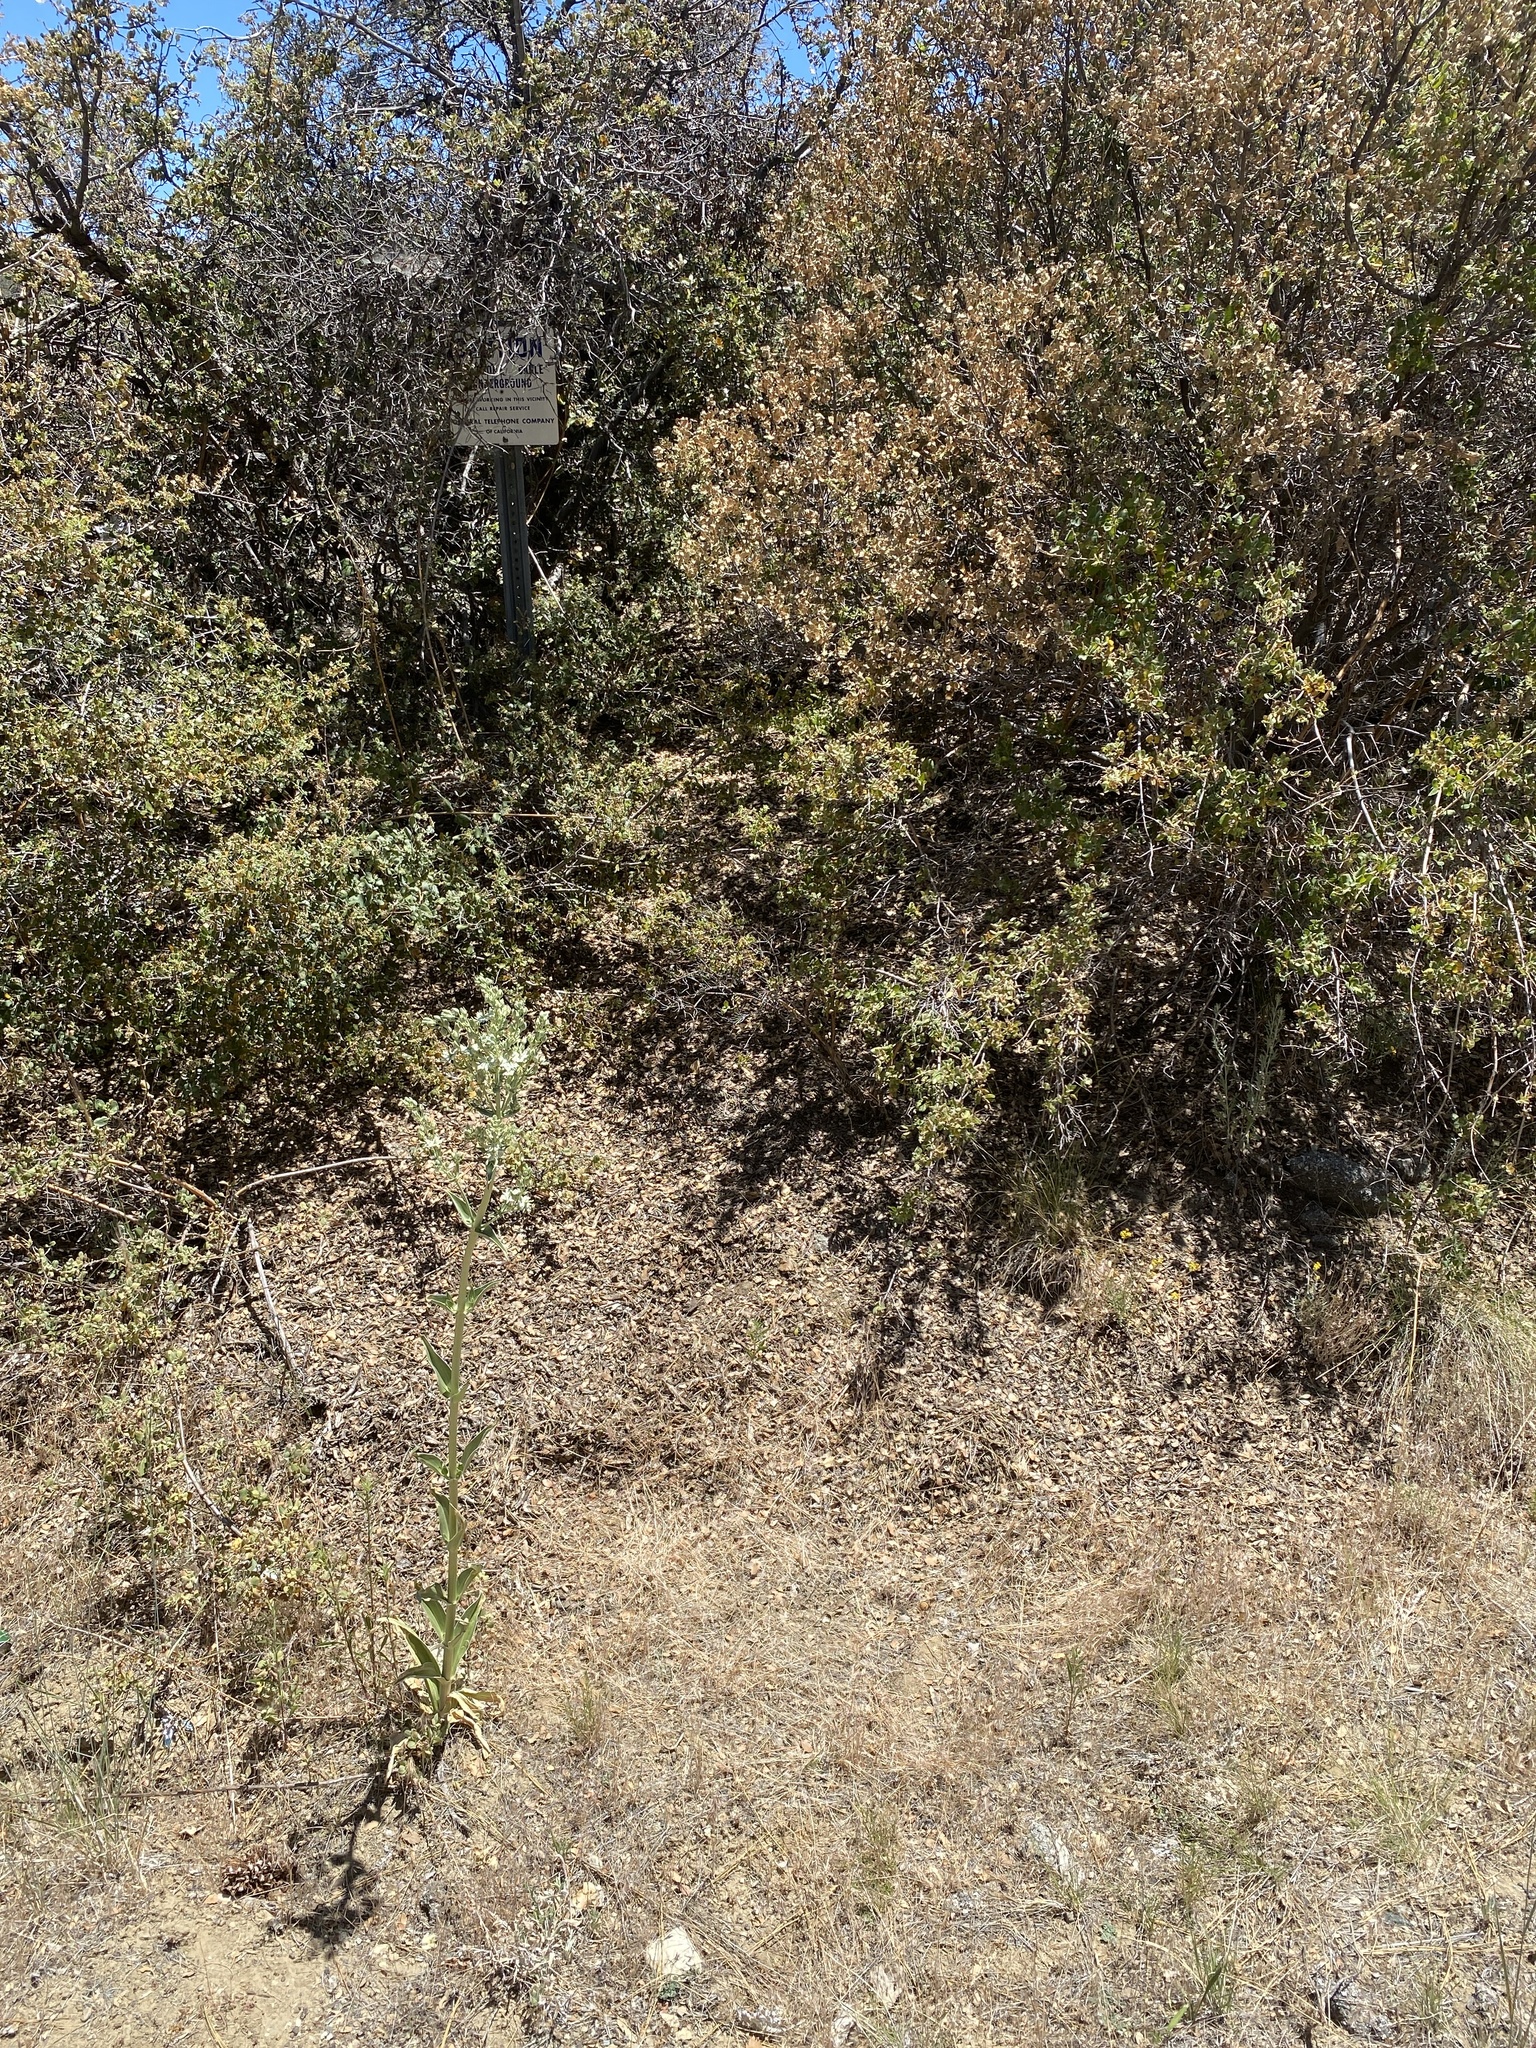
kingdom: Plantae
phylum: Tracheophyta
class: Magnoliopsida
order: Gentianales
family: Gentianaceae
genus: Frasera
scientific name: Frasera parryi
